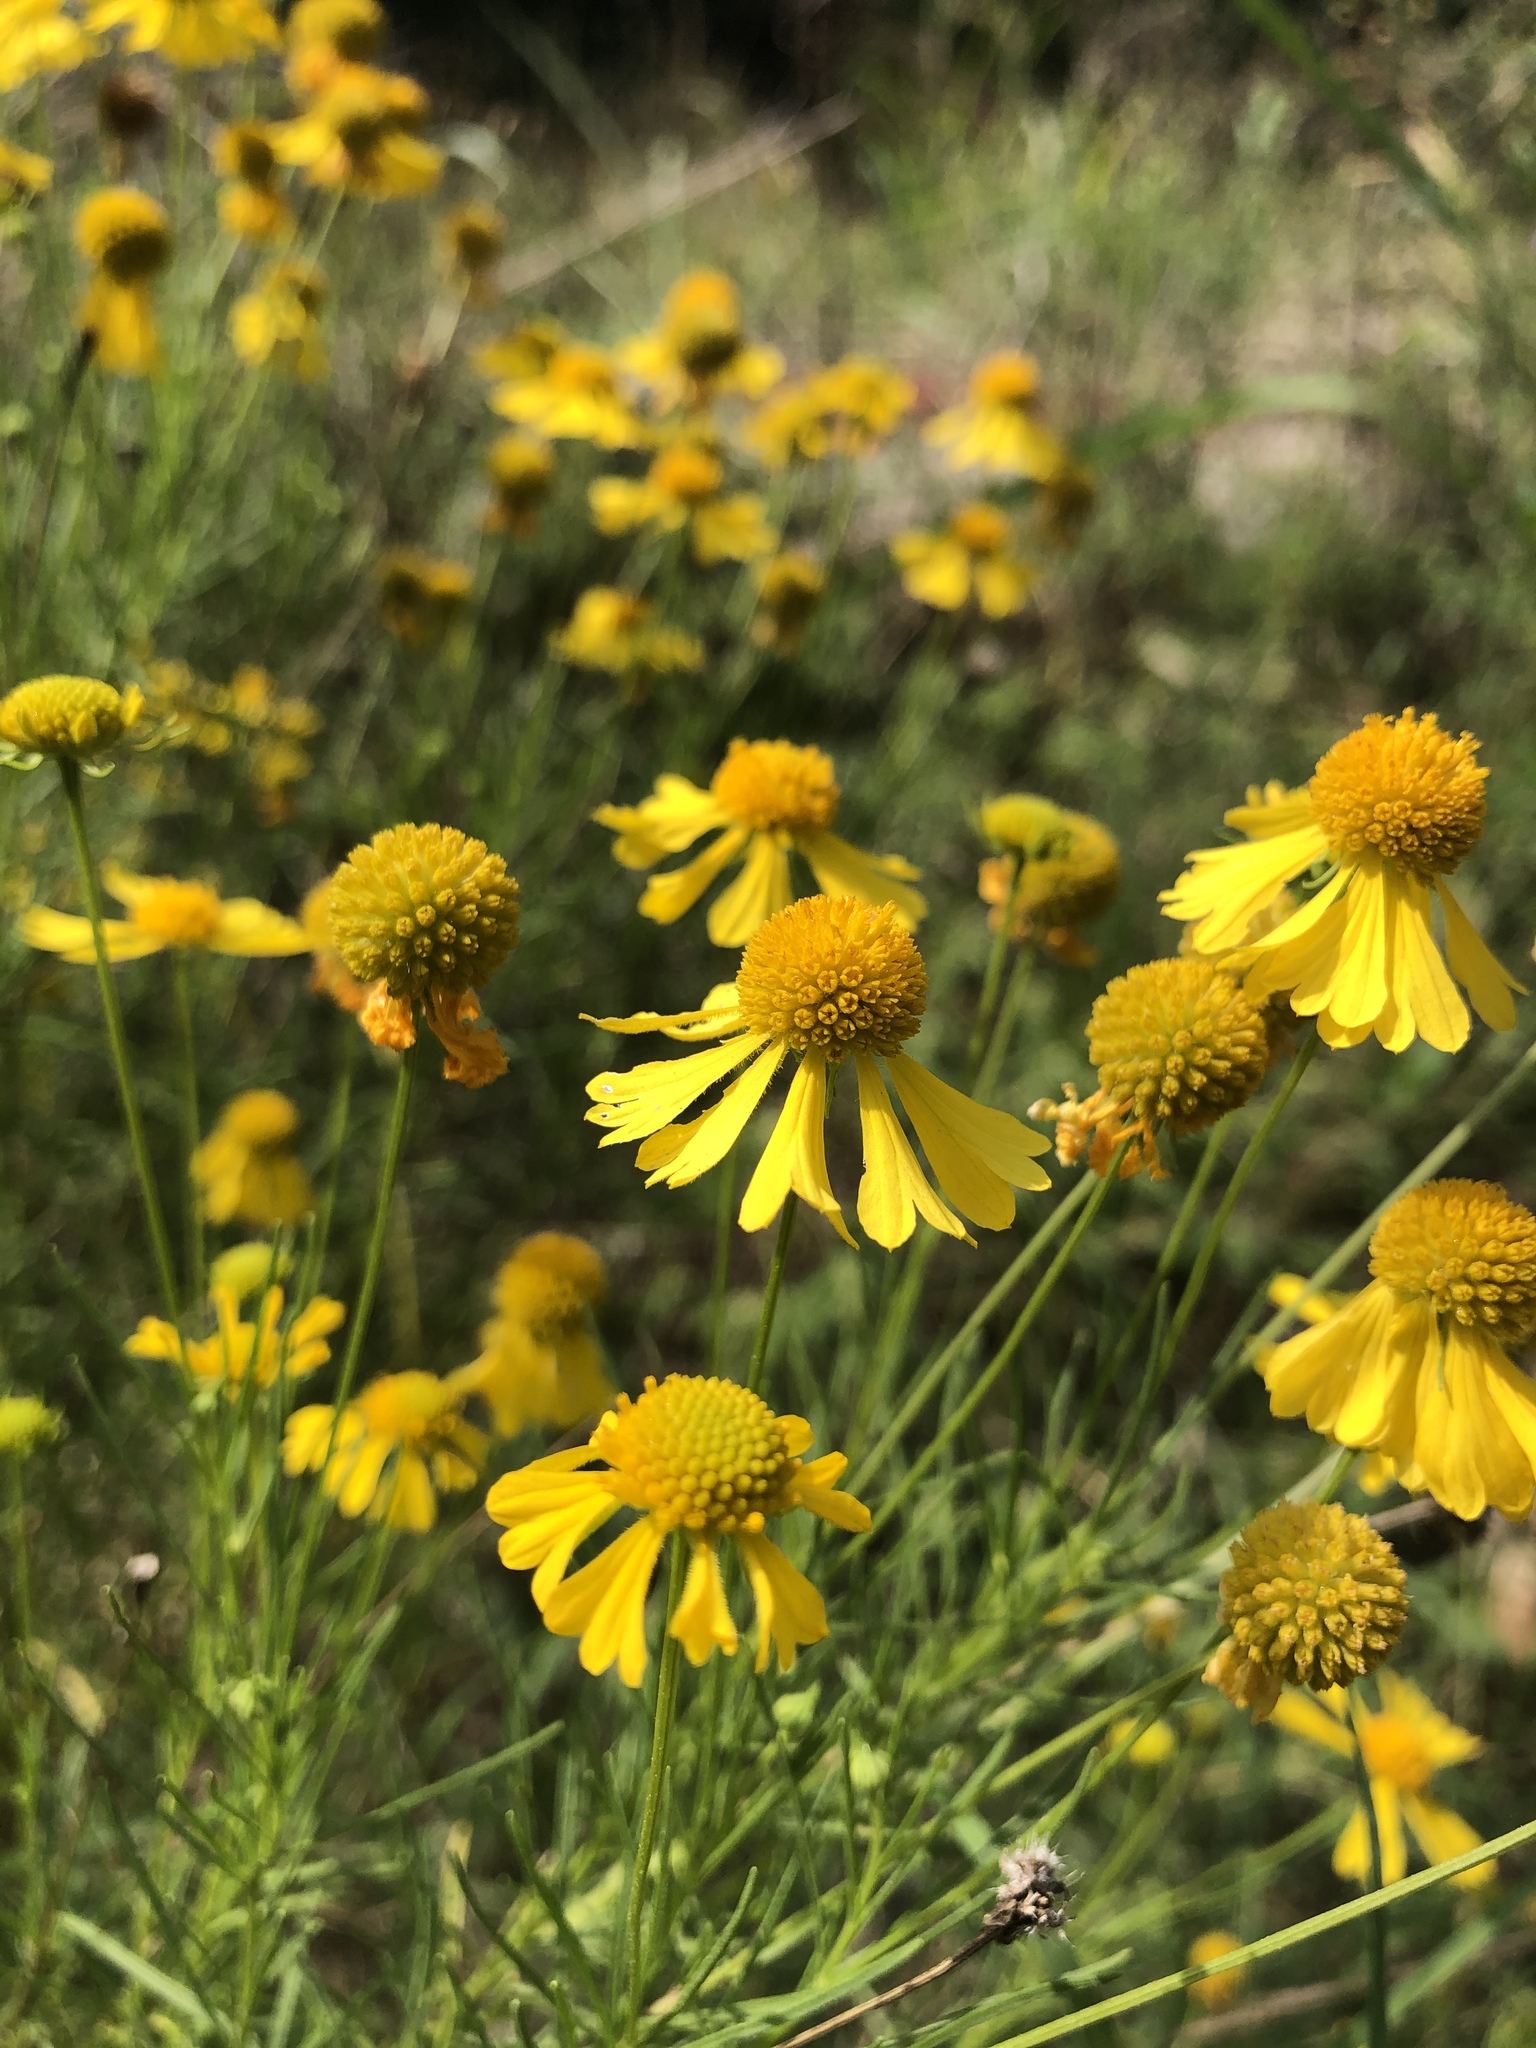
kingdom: Plantae
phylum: Tracheophyta
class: Magnoliopsida
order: Asterales
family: Asteraceae
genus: Helenium
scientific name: Helenium amarum
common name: Bitter sneezeweed
